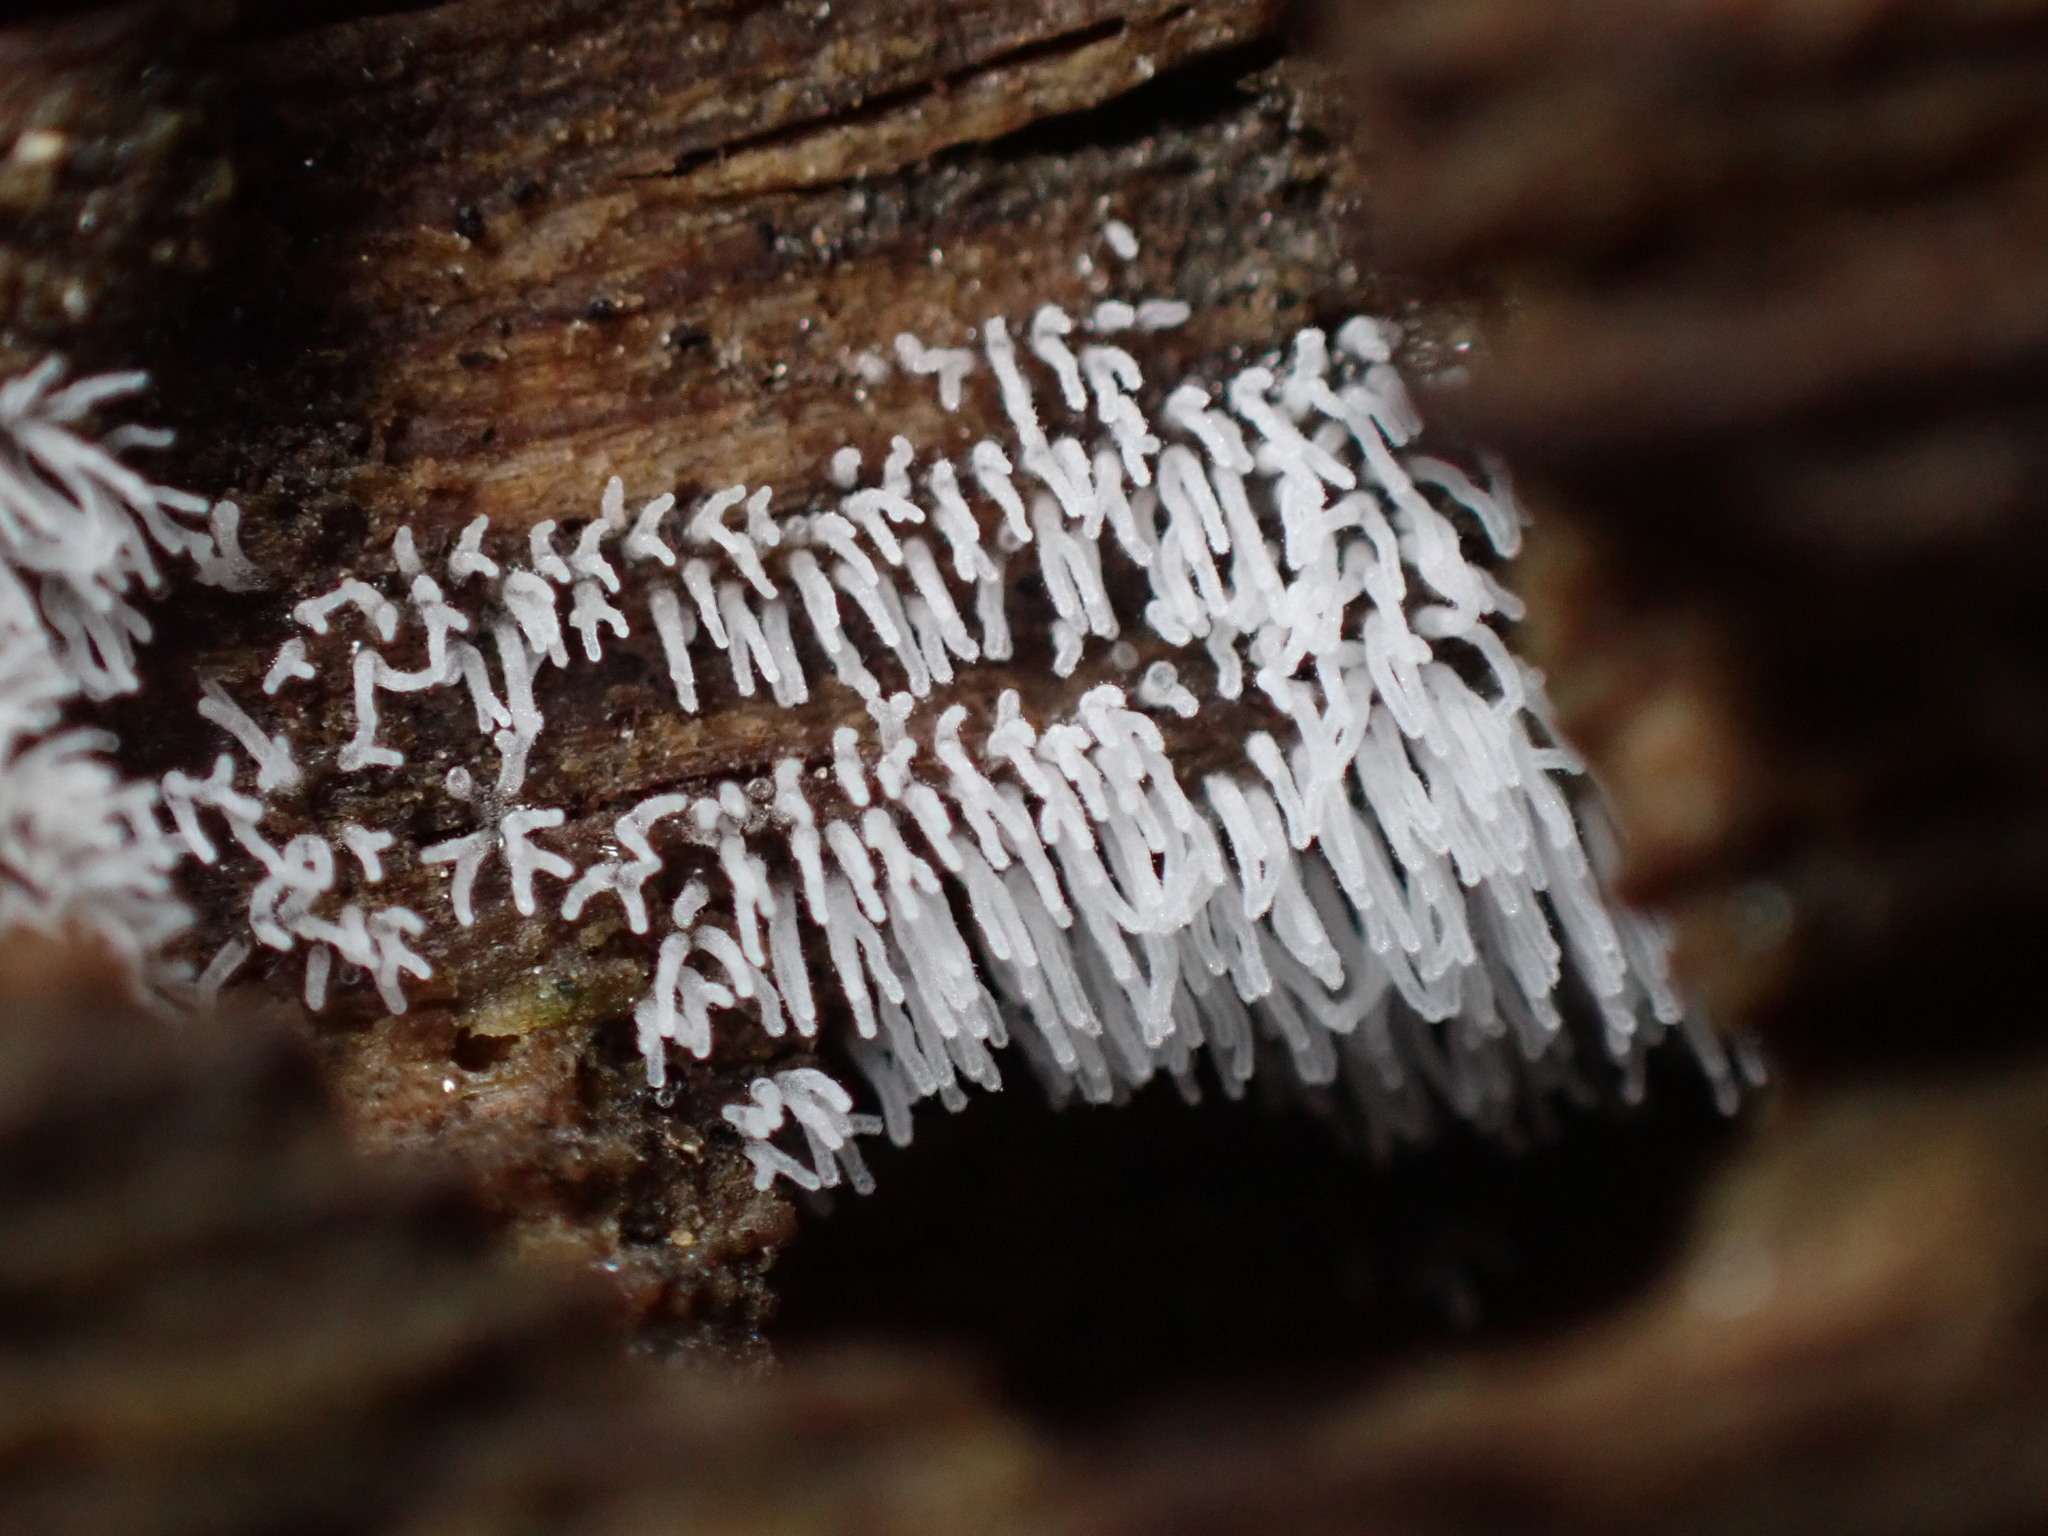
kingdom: Protozoa
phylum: Mycetozoa
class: Protosteliomycetes
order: Ceratiomyxales
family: Ceratiomyxaceae
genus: Ceratiomyxa
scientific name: Ceratiomyxa fruticulosa
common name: Honeycomb coral slime mold
